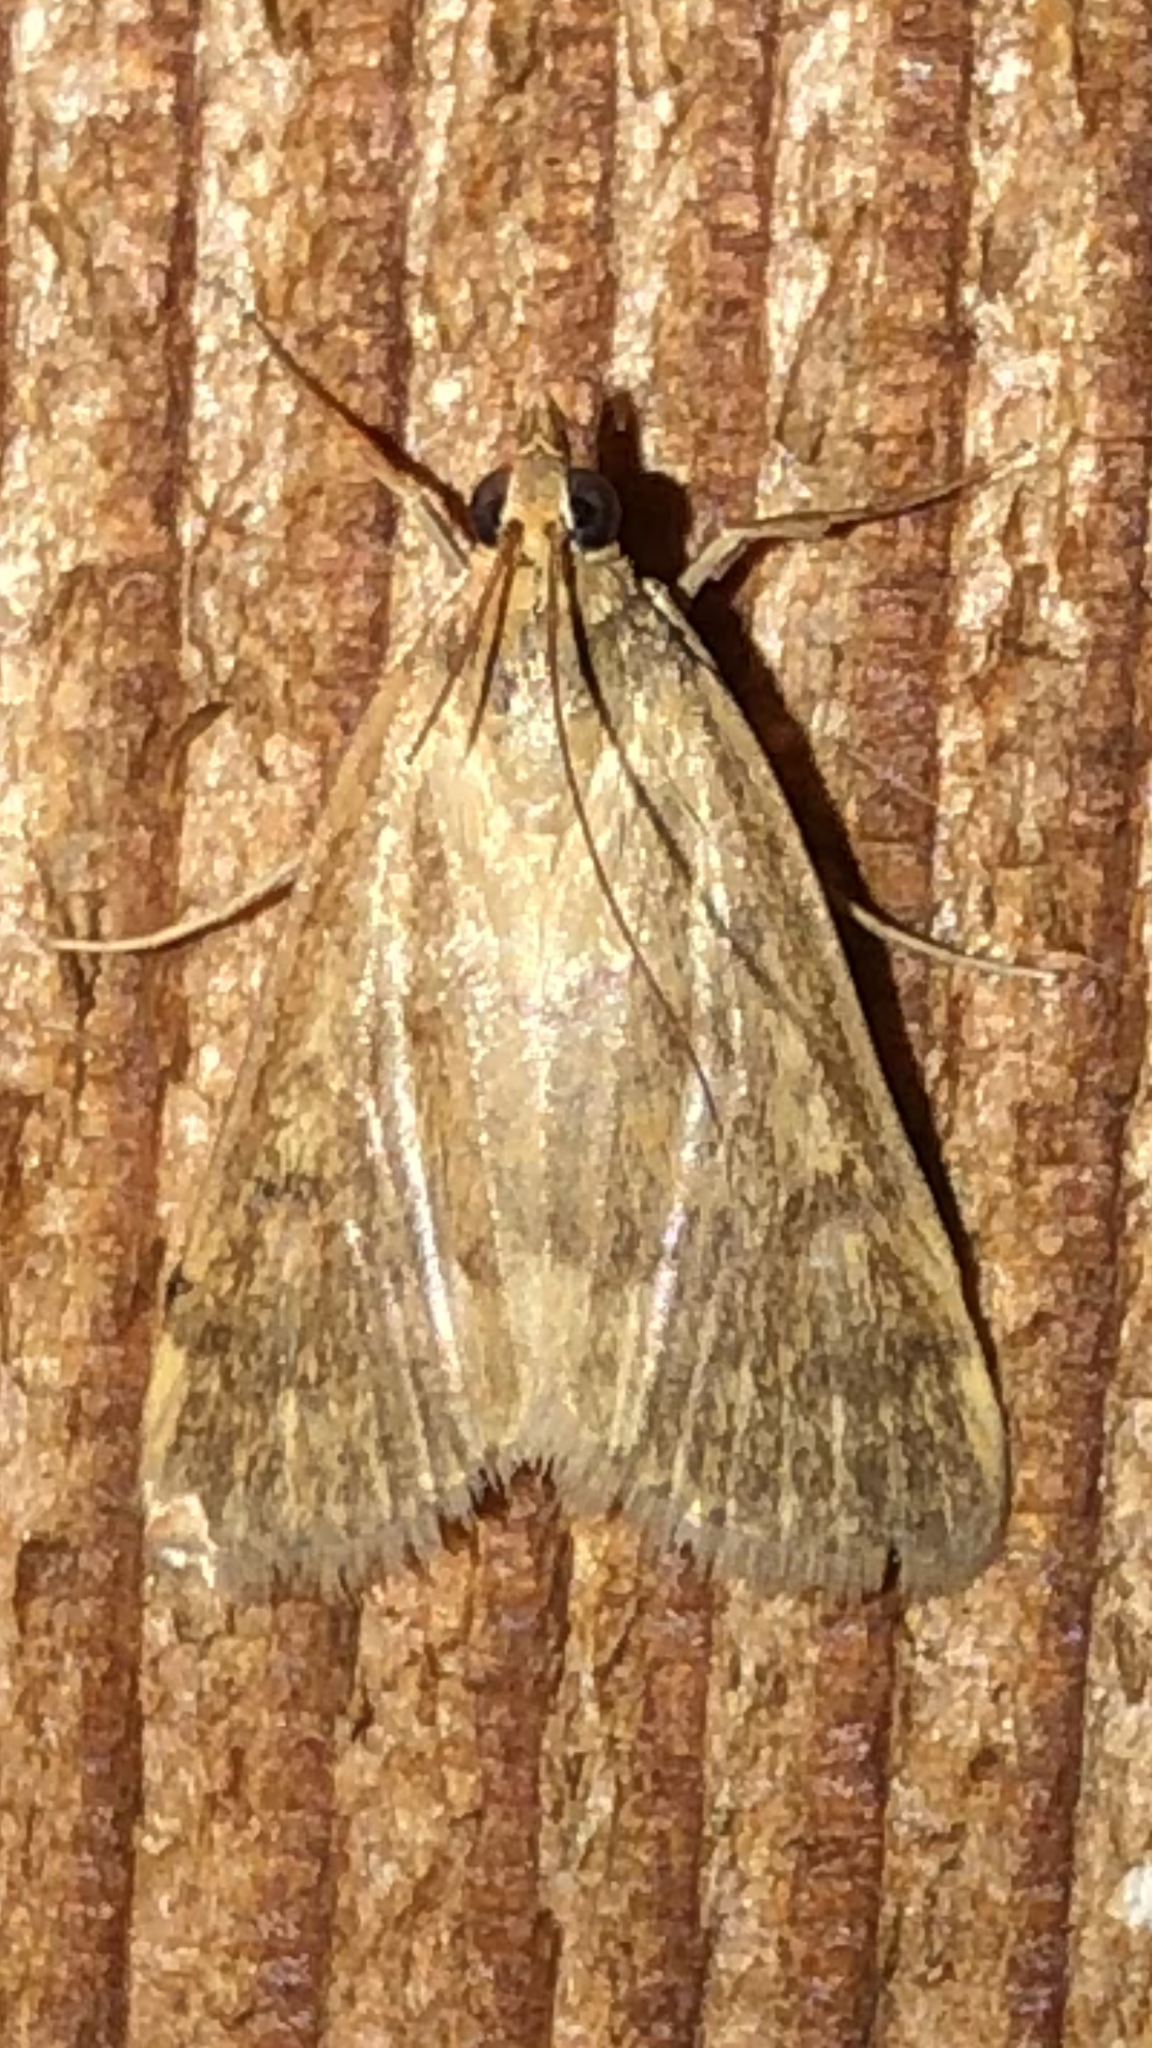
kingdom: Animalia
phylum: Arthropoda
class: Insecta
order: Lepidoptera
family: Crambidae
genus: Achyra
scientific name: Achyra rantalis
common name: Garden webworm
